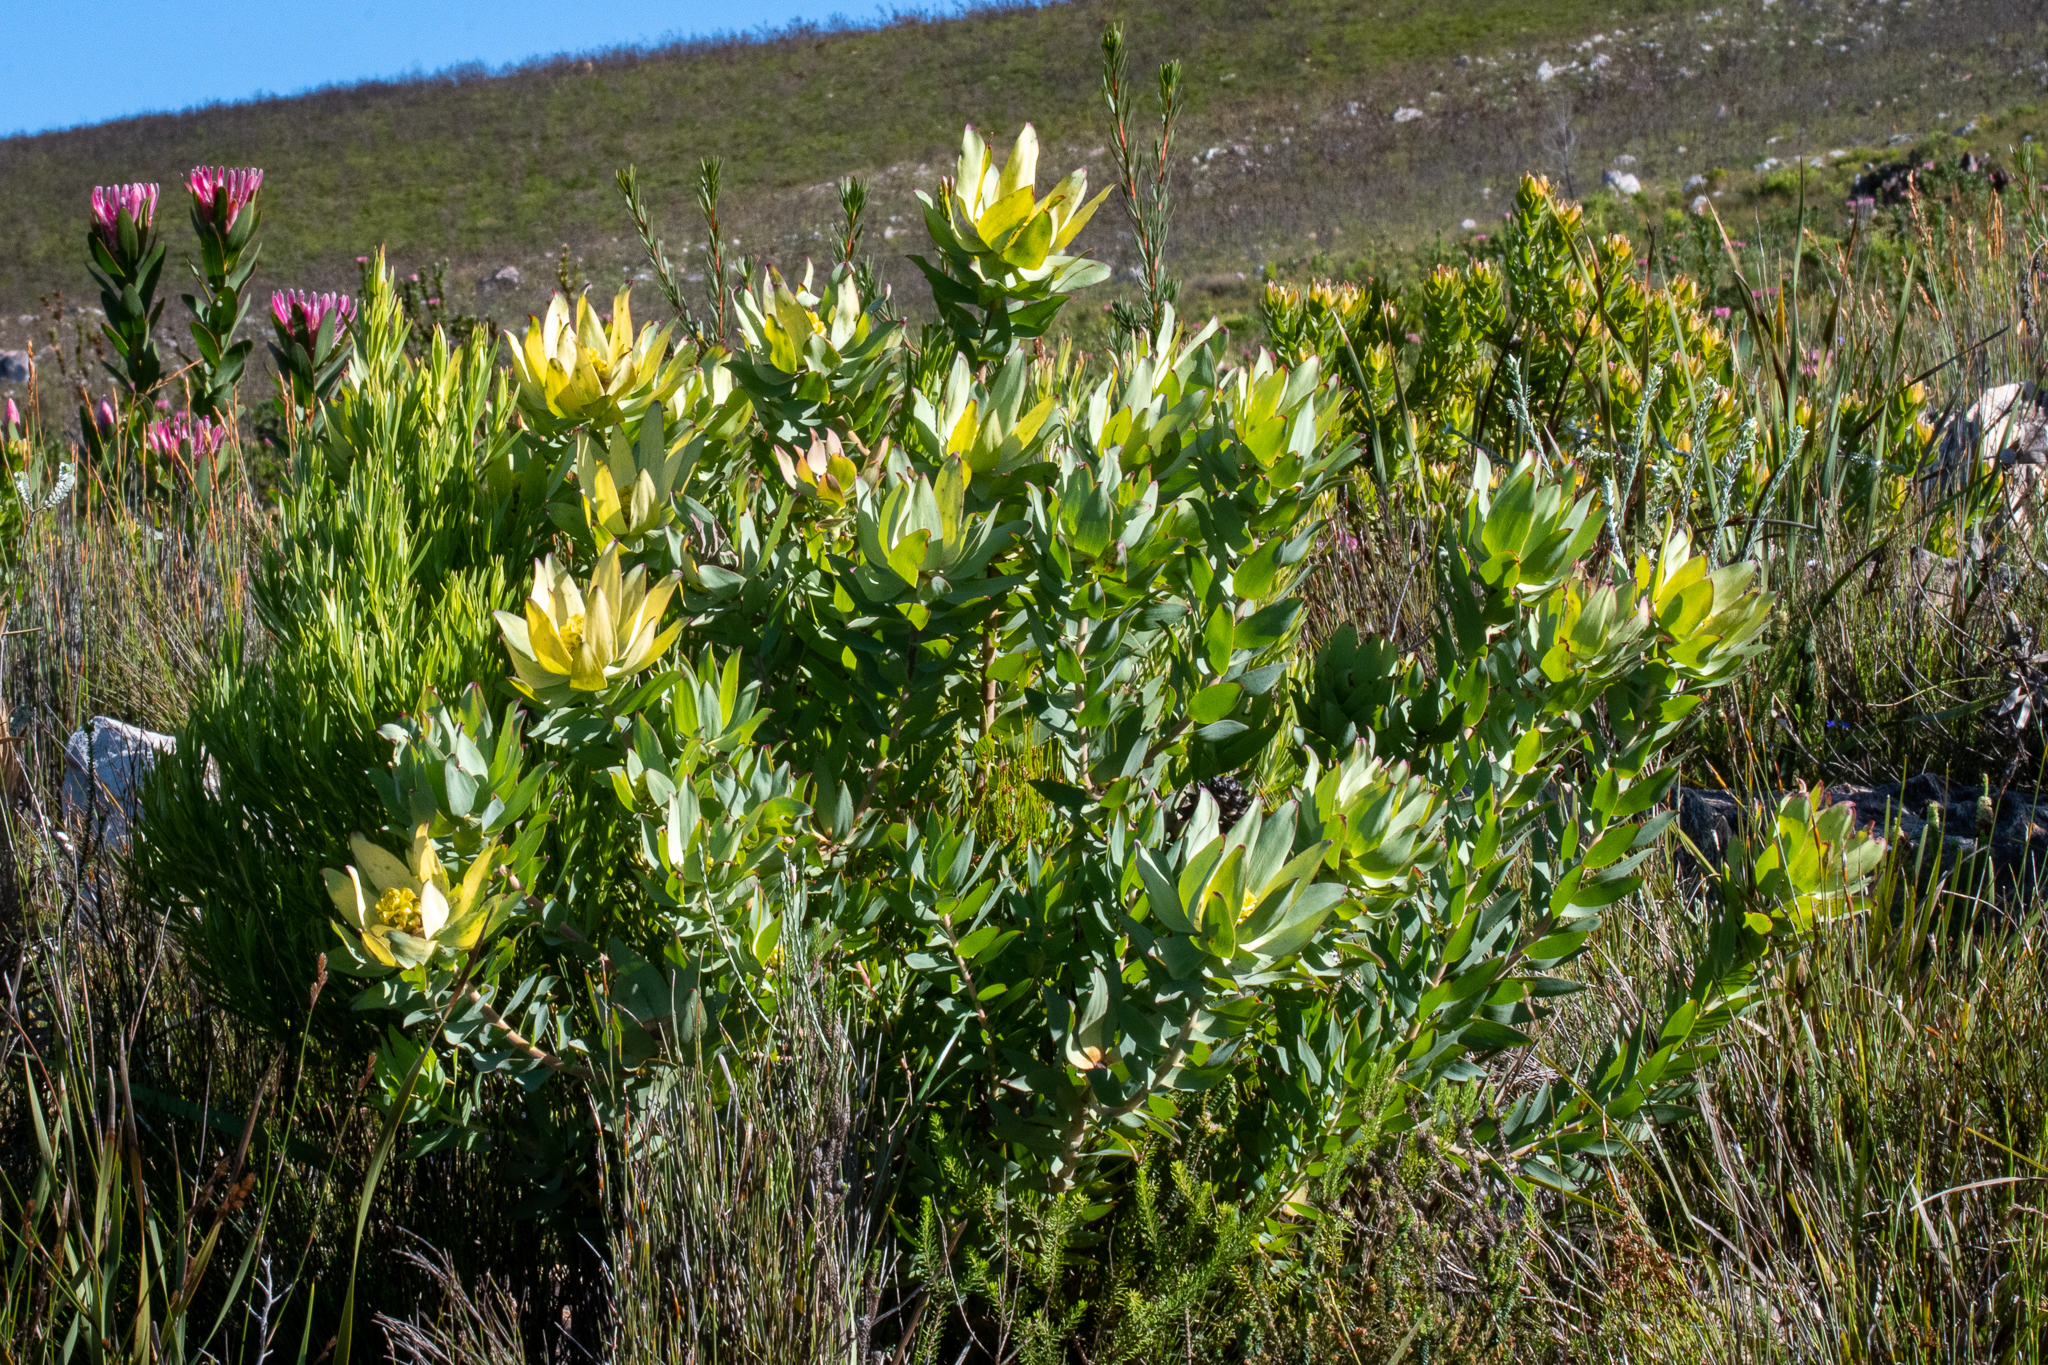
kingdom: Plantae
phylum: Tracheophyta
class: Magnoliopsida
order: Proteales
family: Proteaceae
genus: Leucadendron
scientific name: Leucadendron tinctum
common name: Spicy conebush
